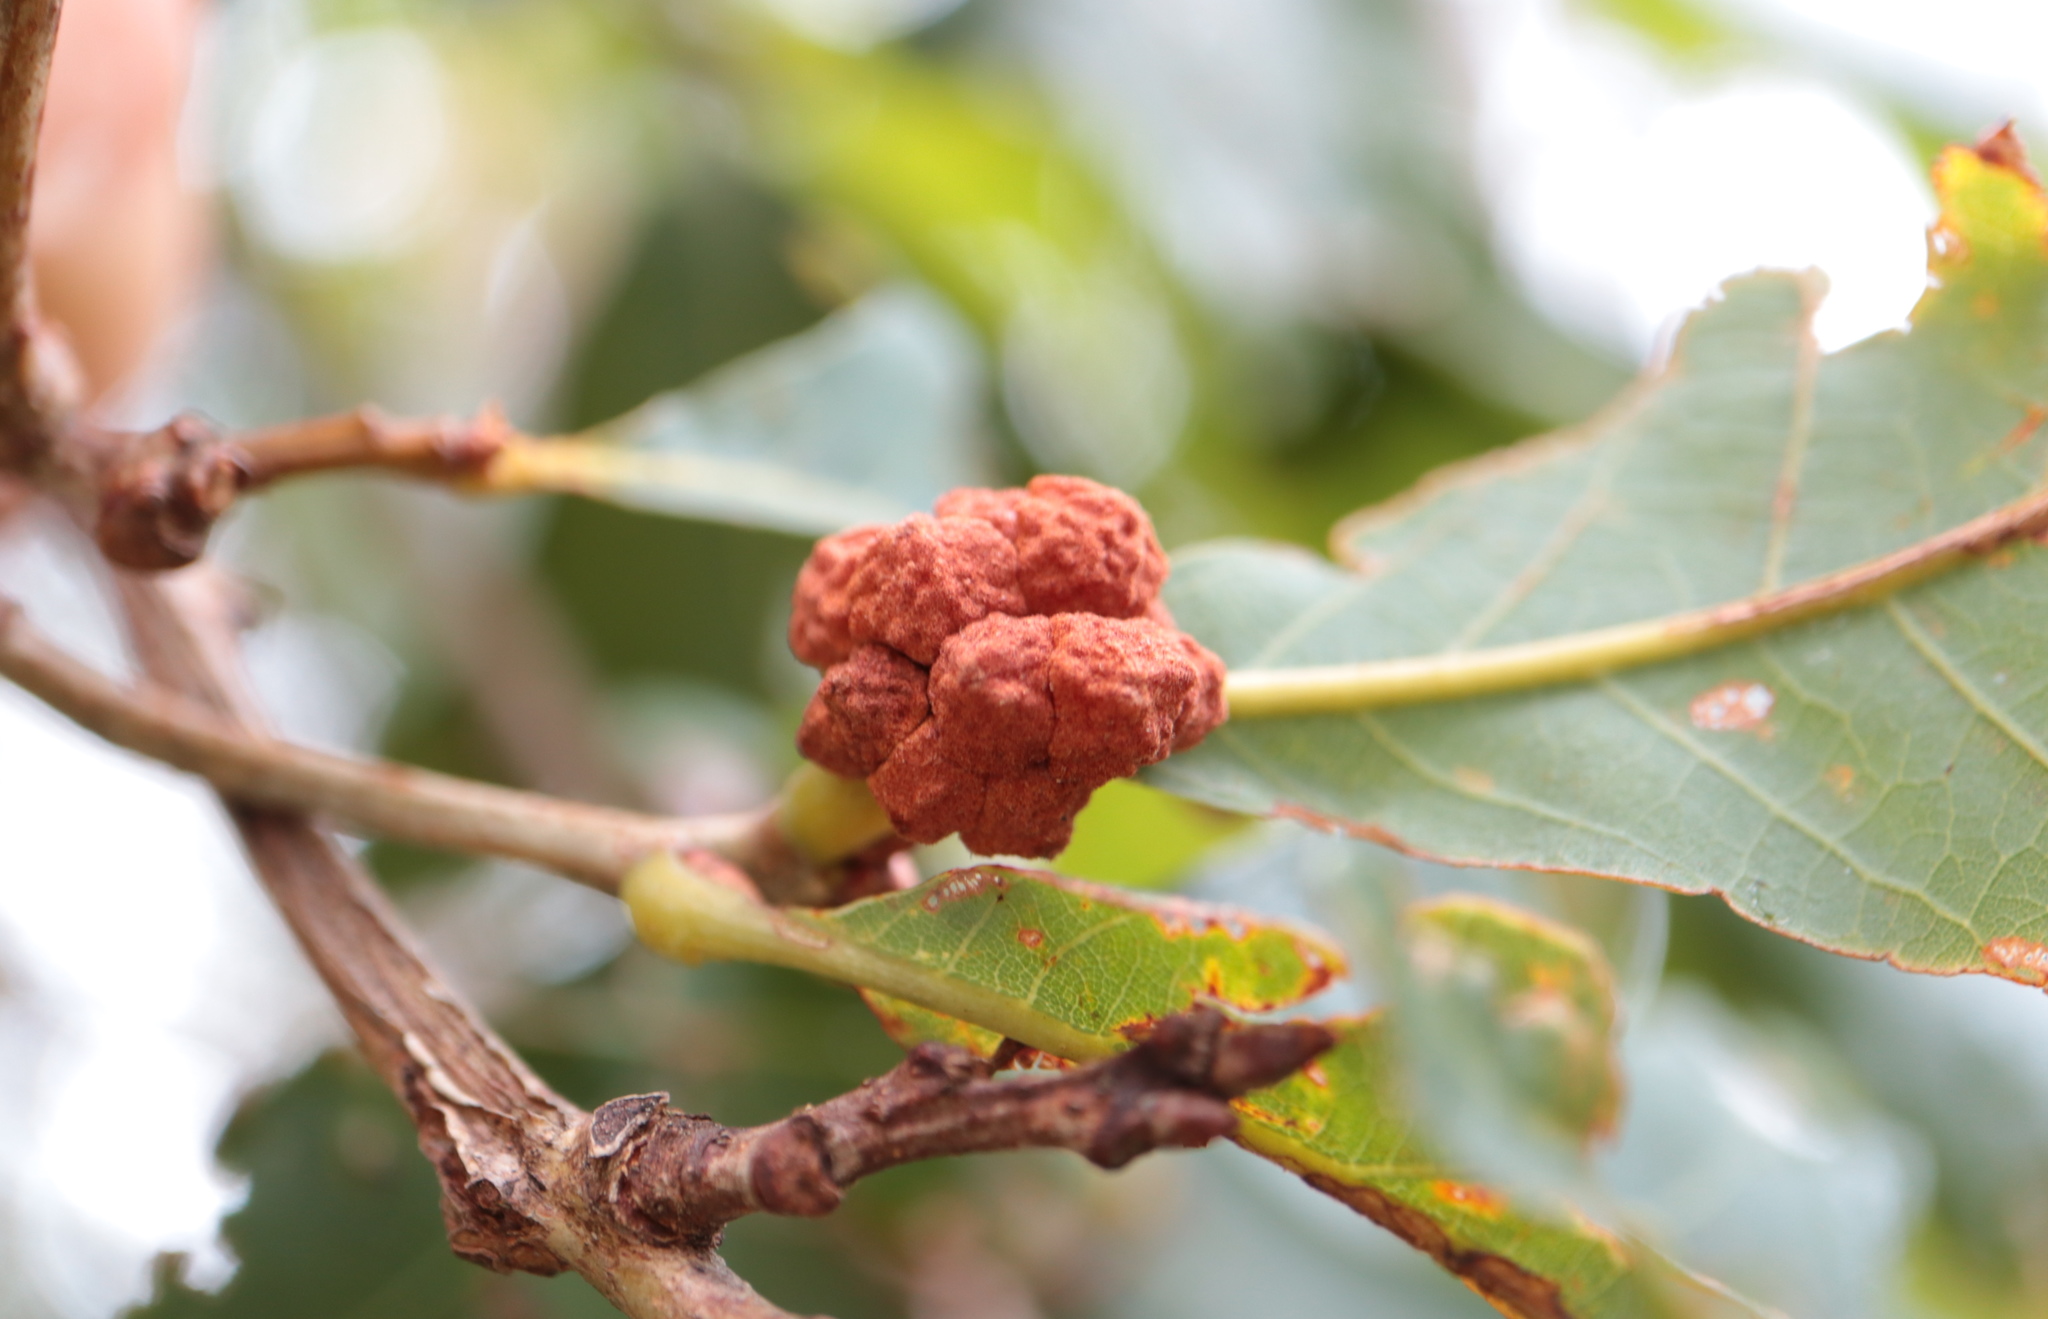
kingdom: Animalia
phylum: Arthropoda
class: Insecta
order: Hymenoptera
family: Cynipidae
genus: Andricus
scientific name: Andricus
